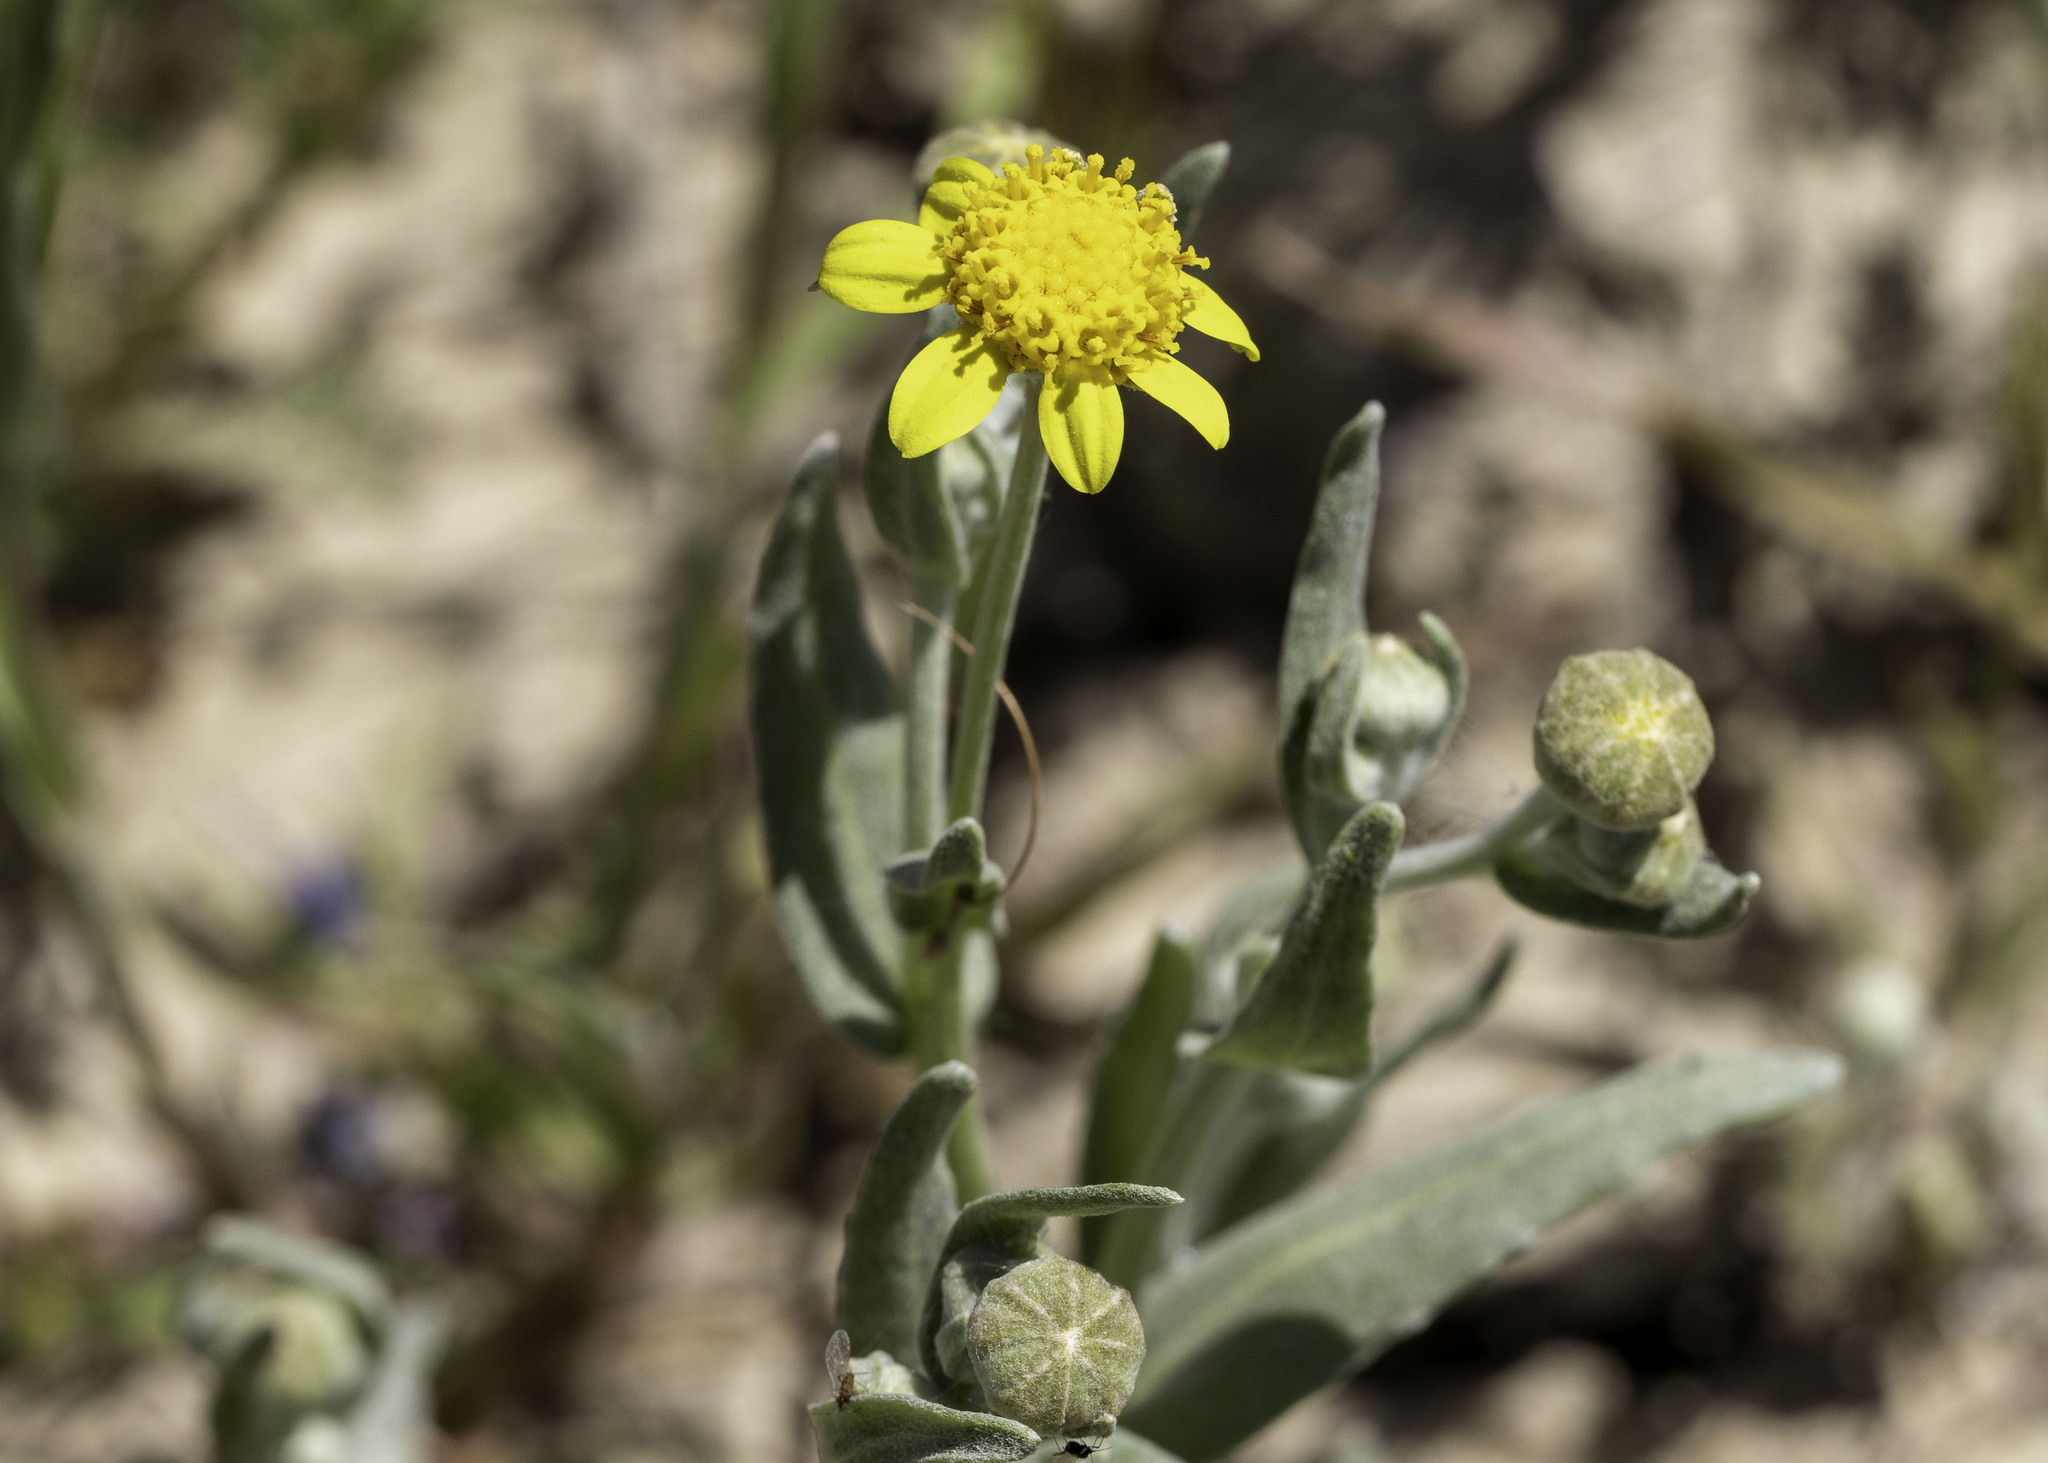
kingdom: Plantae
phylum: Tracheophyta
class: Magnoliopsida
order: Asterales
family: Asteraceae
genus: Monolopia
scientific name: Monolopia stricta
